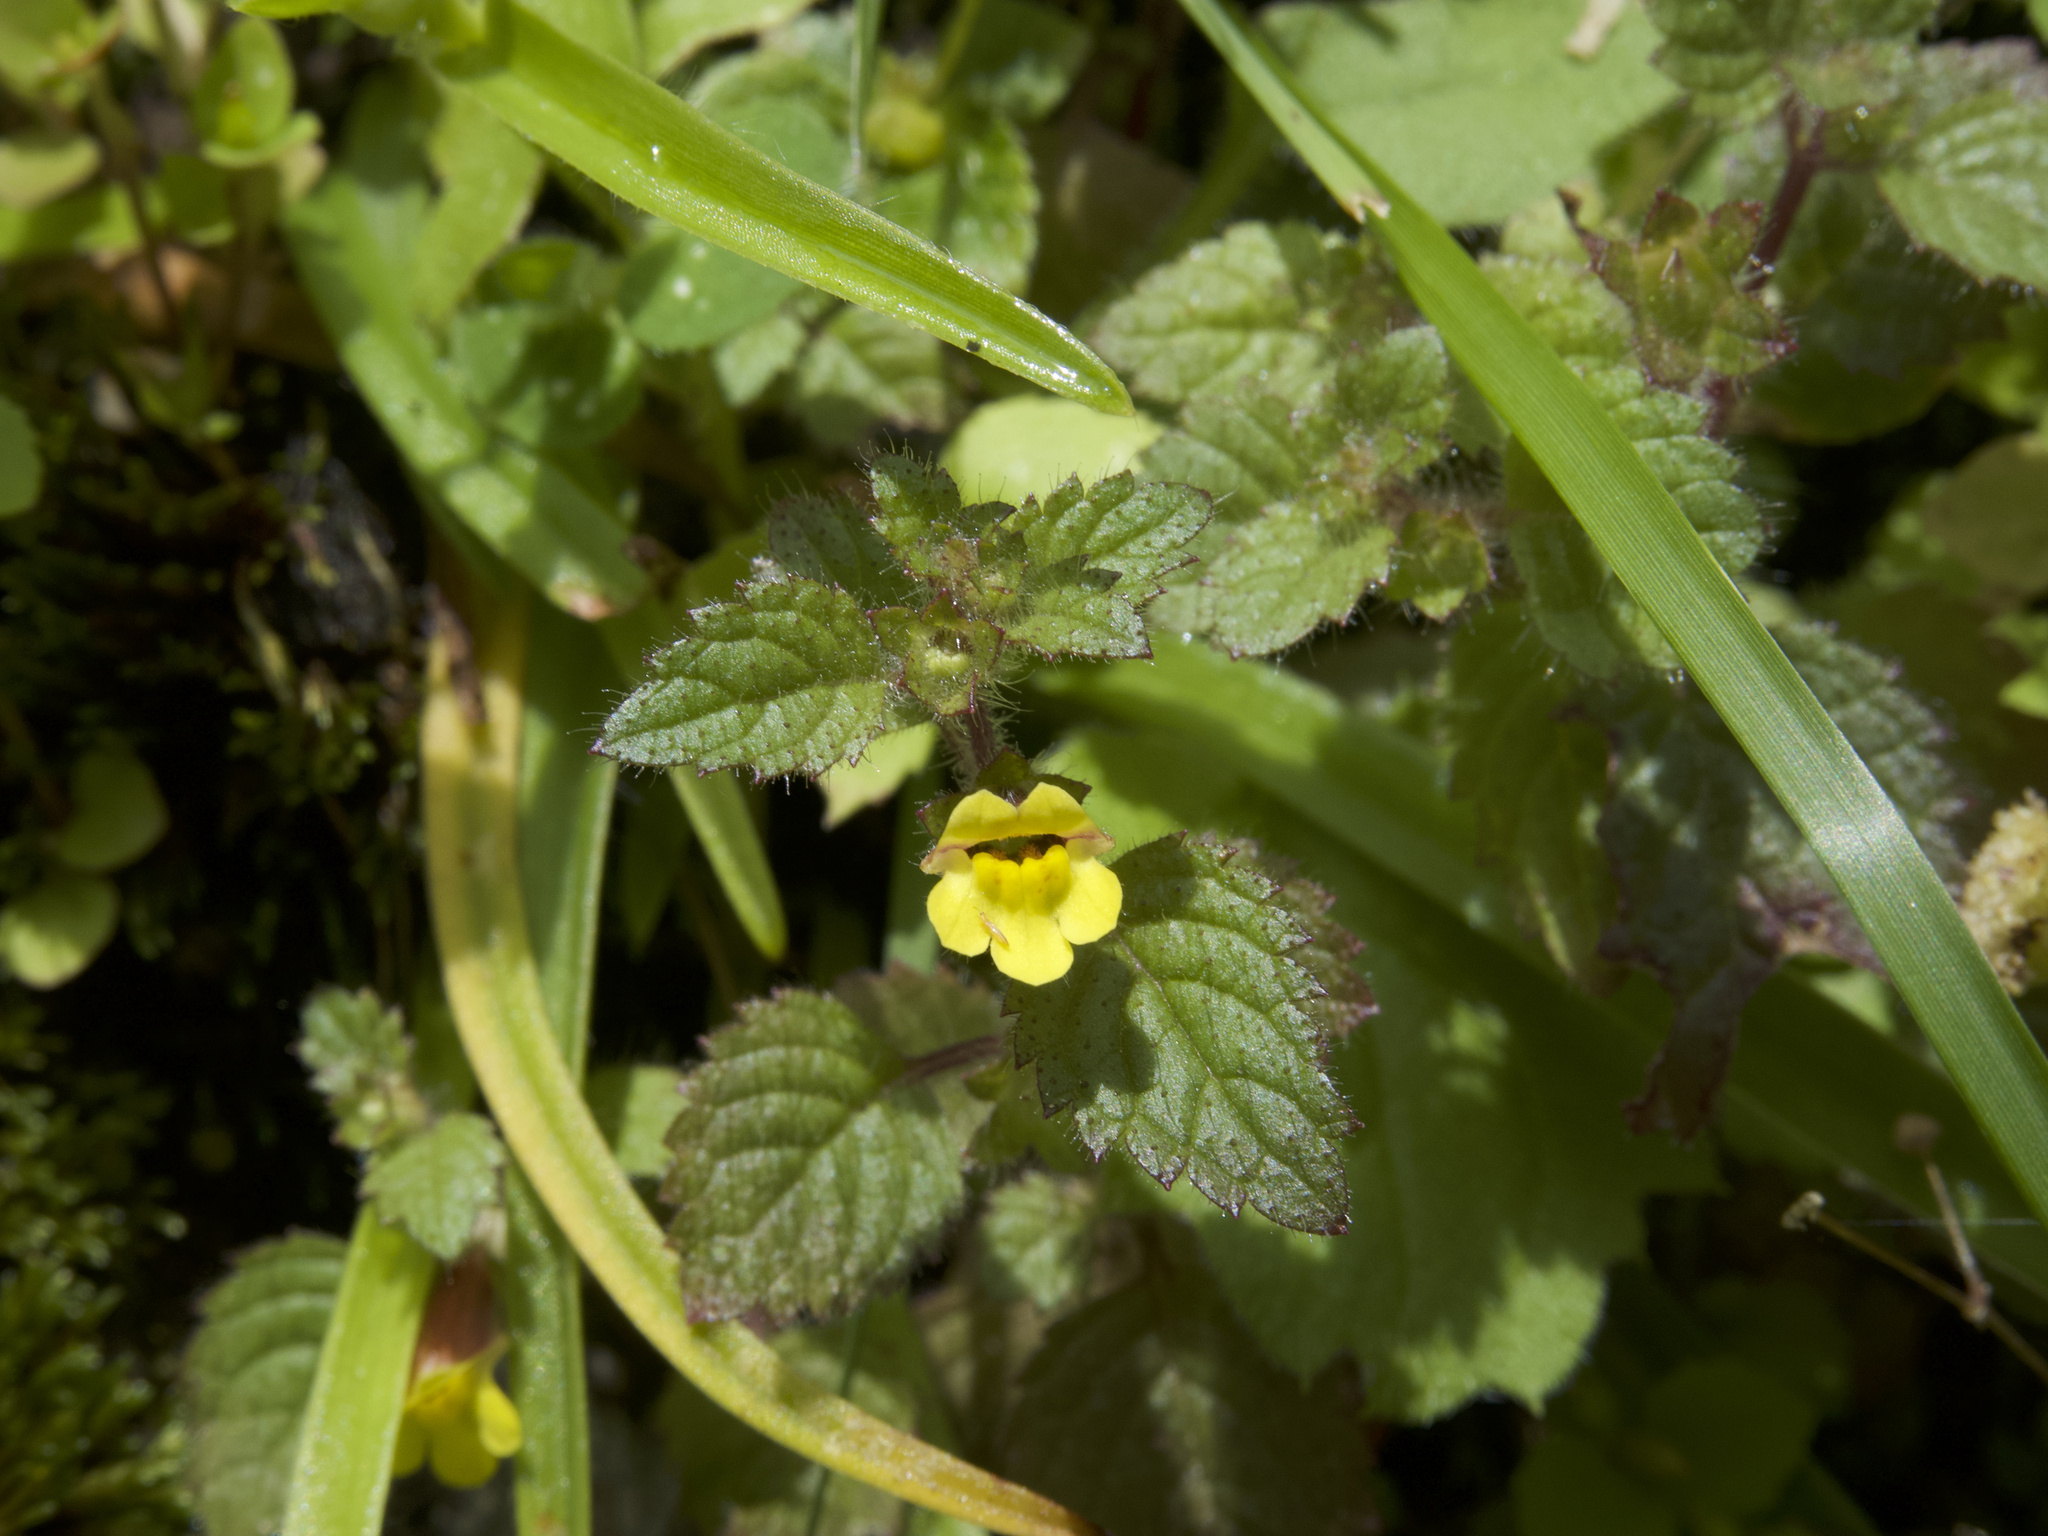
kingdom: Plantae
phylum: Tracheophyta
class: Magnoliopsida
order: Lamiales
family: Orobanchaceae
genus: Lindenbergia
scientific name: Lindenbergia indica
